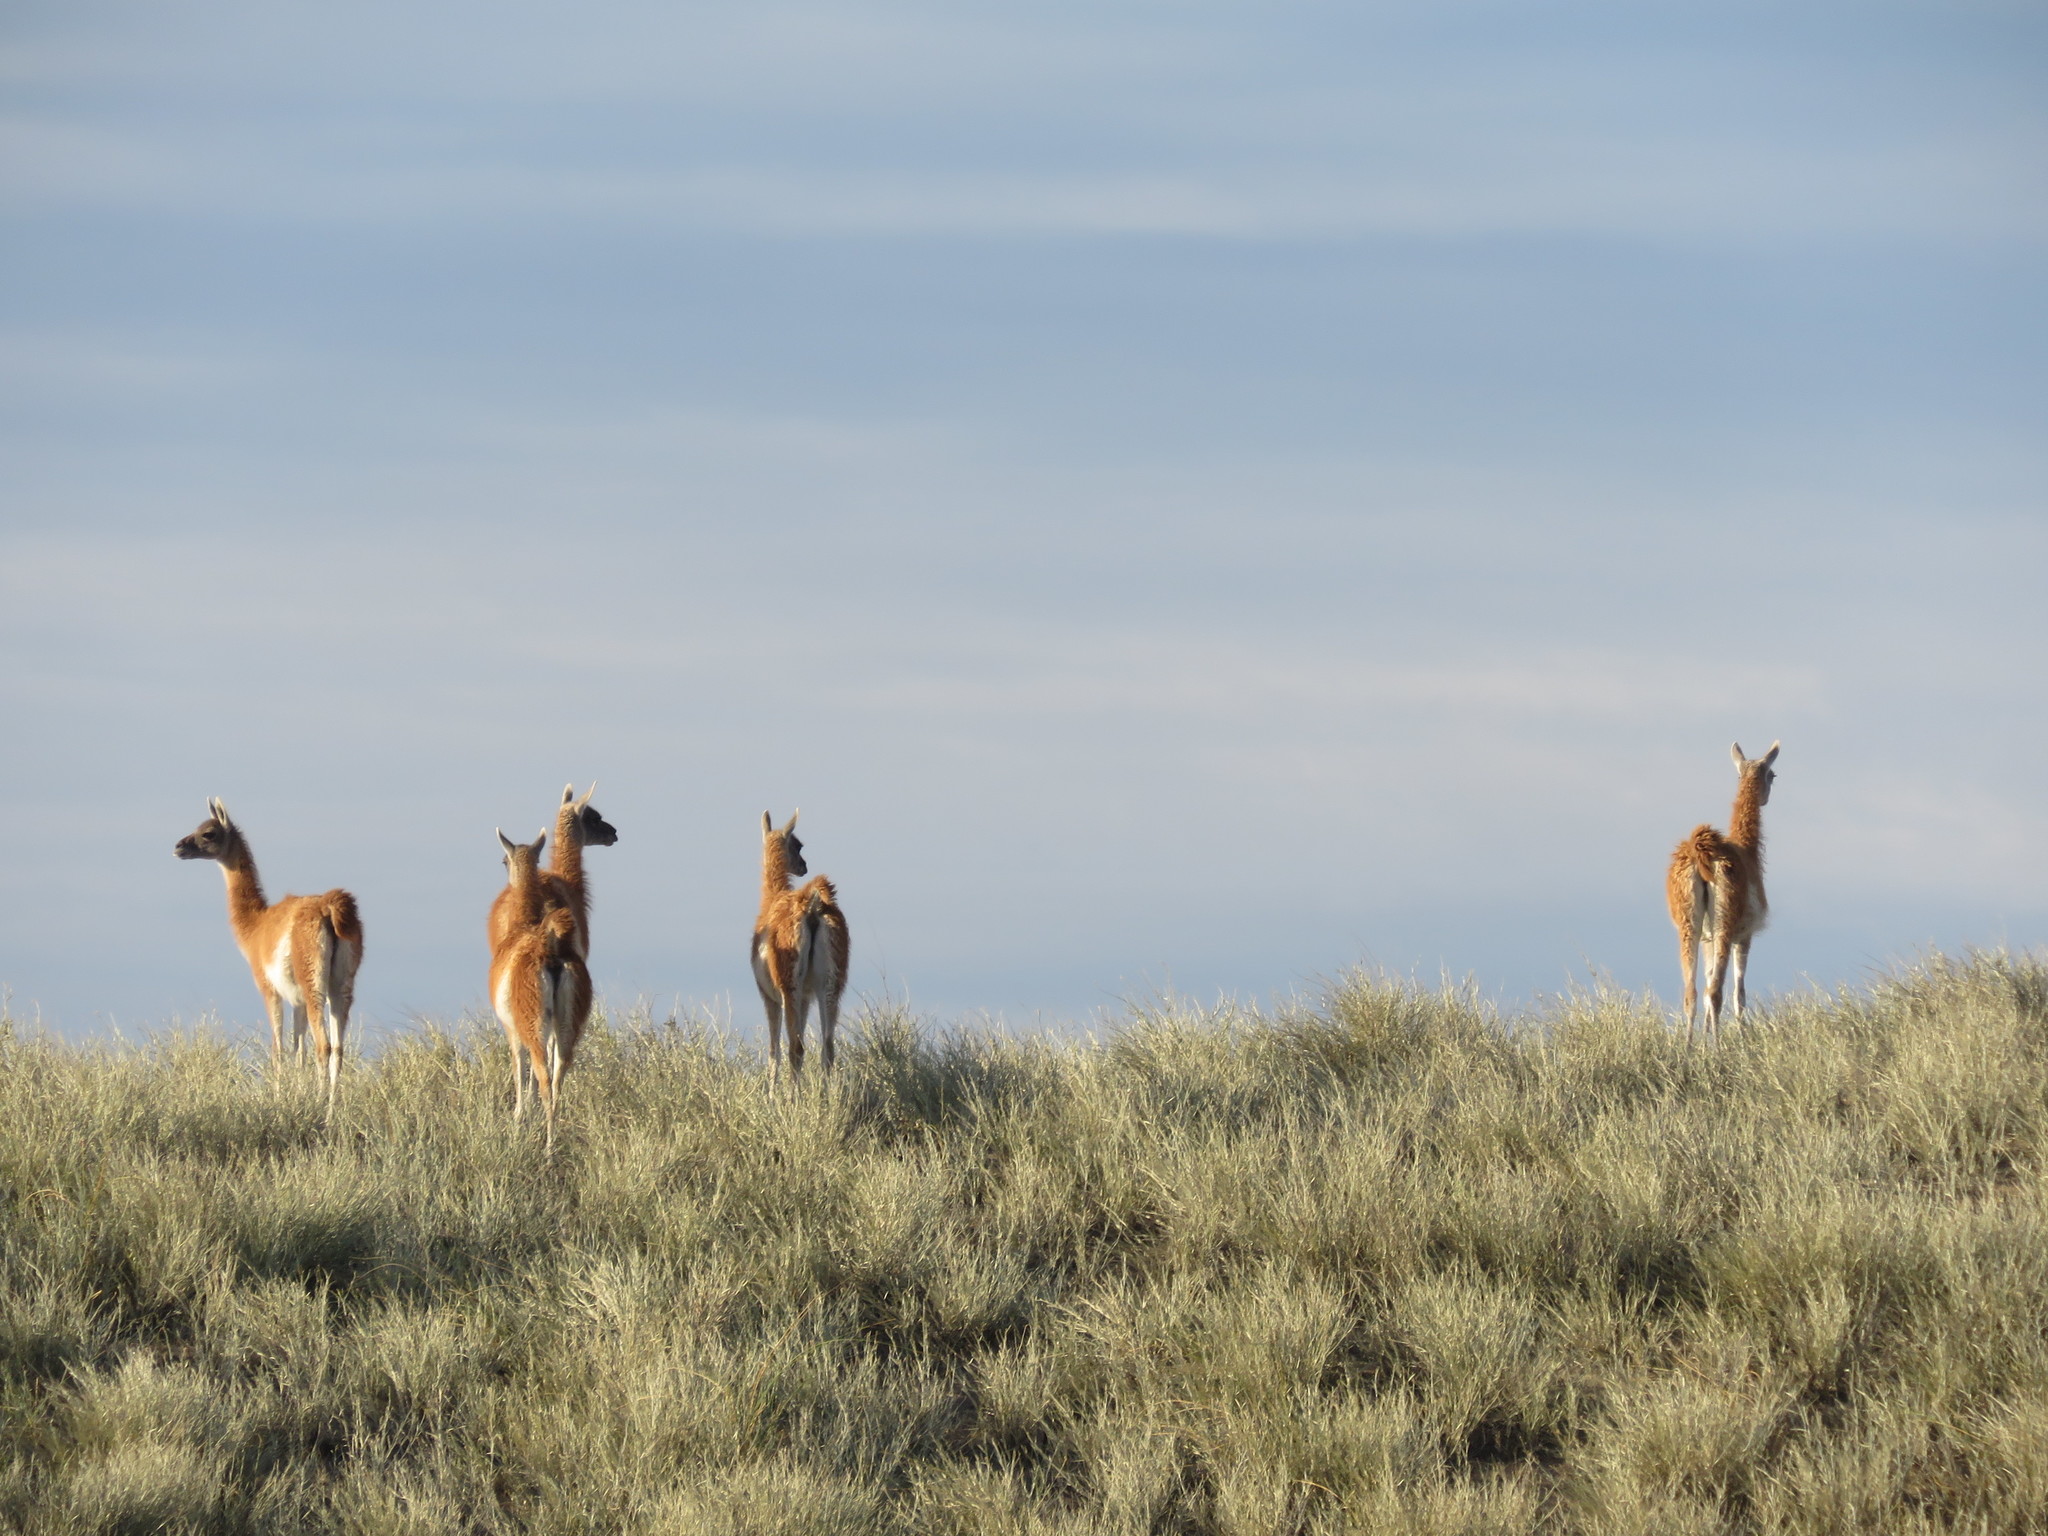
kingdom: Animalia
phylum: Chordata
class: Mammalia
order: Artiodactyla
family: Camelidae
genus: Lama
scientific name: Lama glama
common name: Llama
